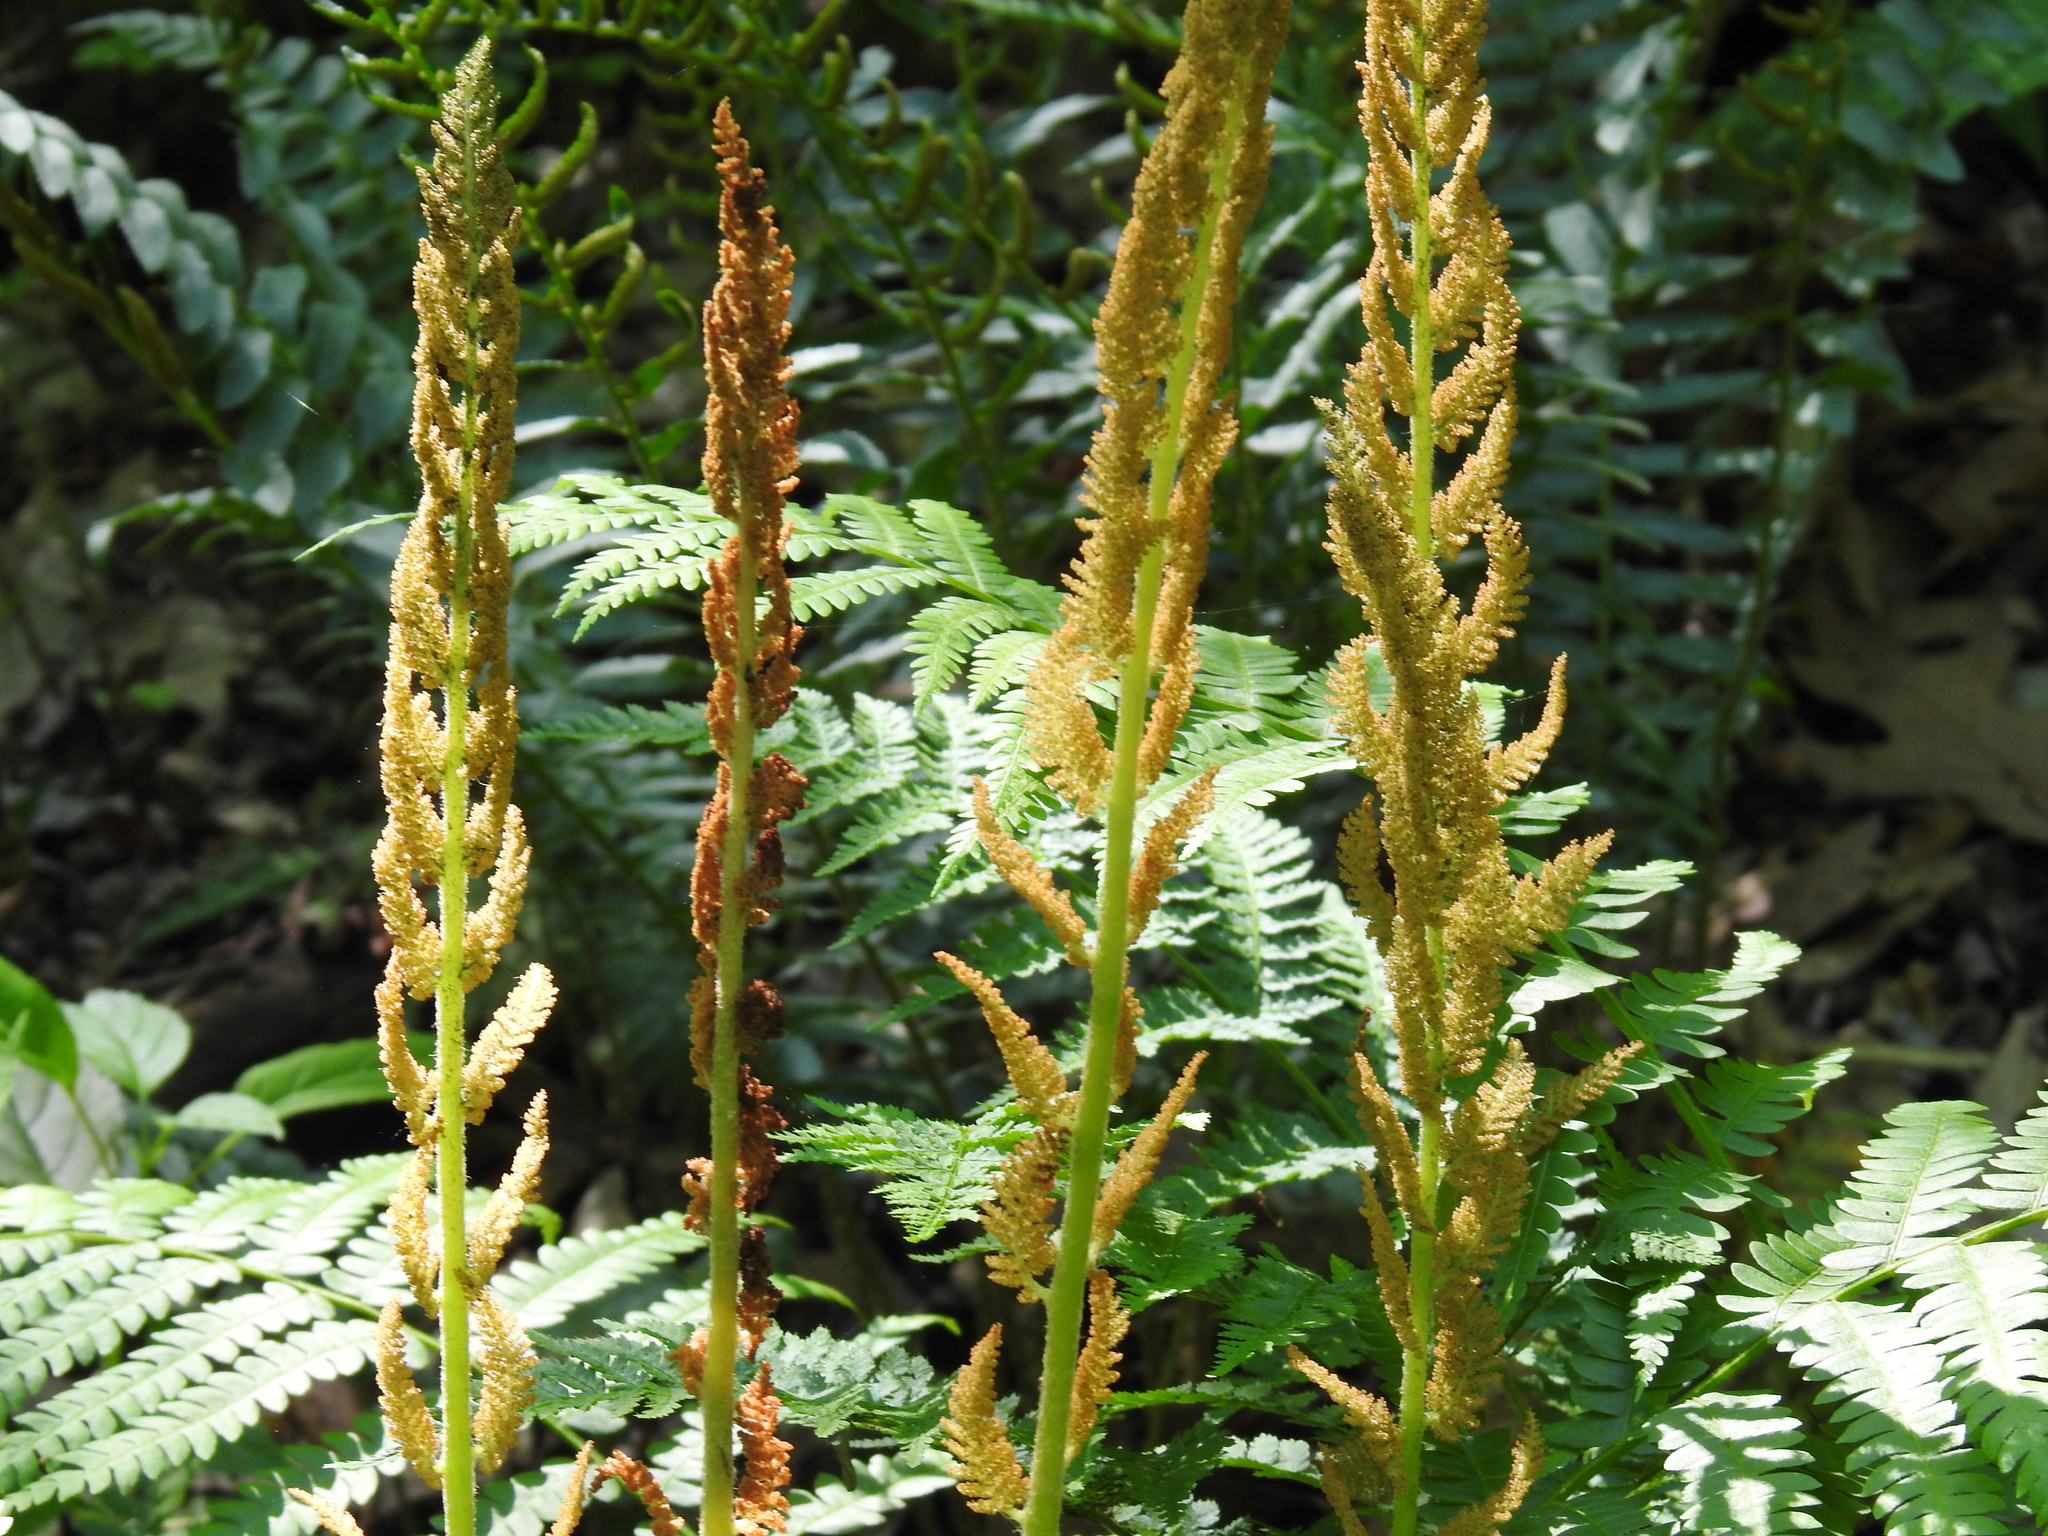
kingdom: Plantae
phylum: Tracheophyta
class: Polypodiopsida
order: Osmundales
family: Osmundaceae
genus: Osmundastrum
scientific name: Osmundastrum cinnamomeum
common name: Cinnamon fern
